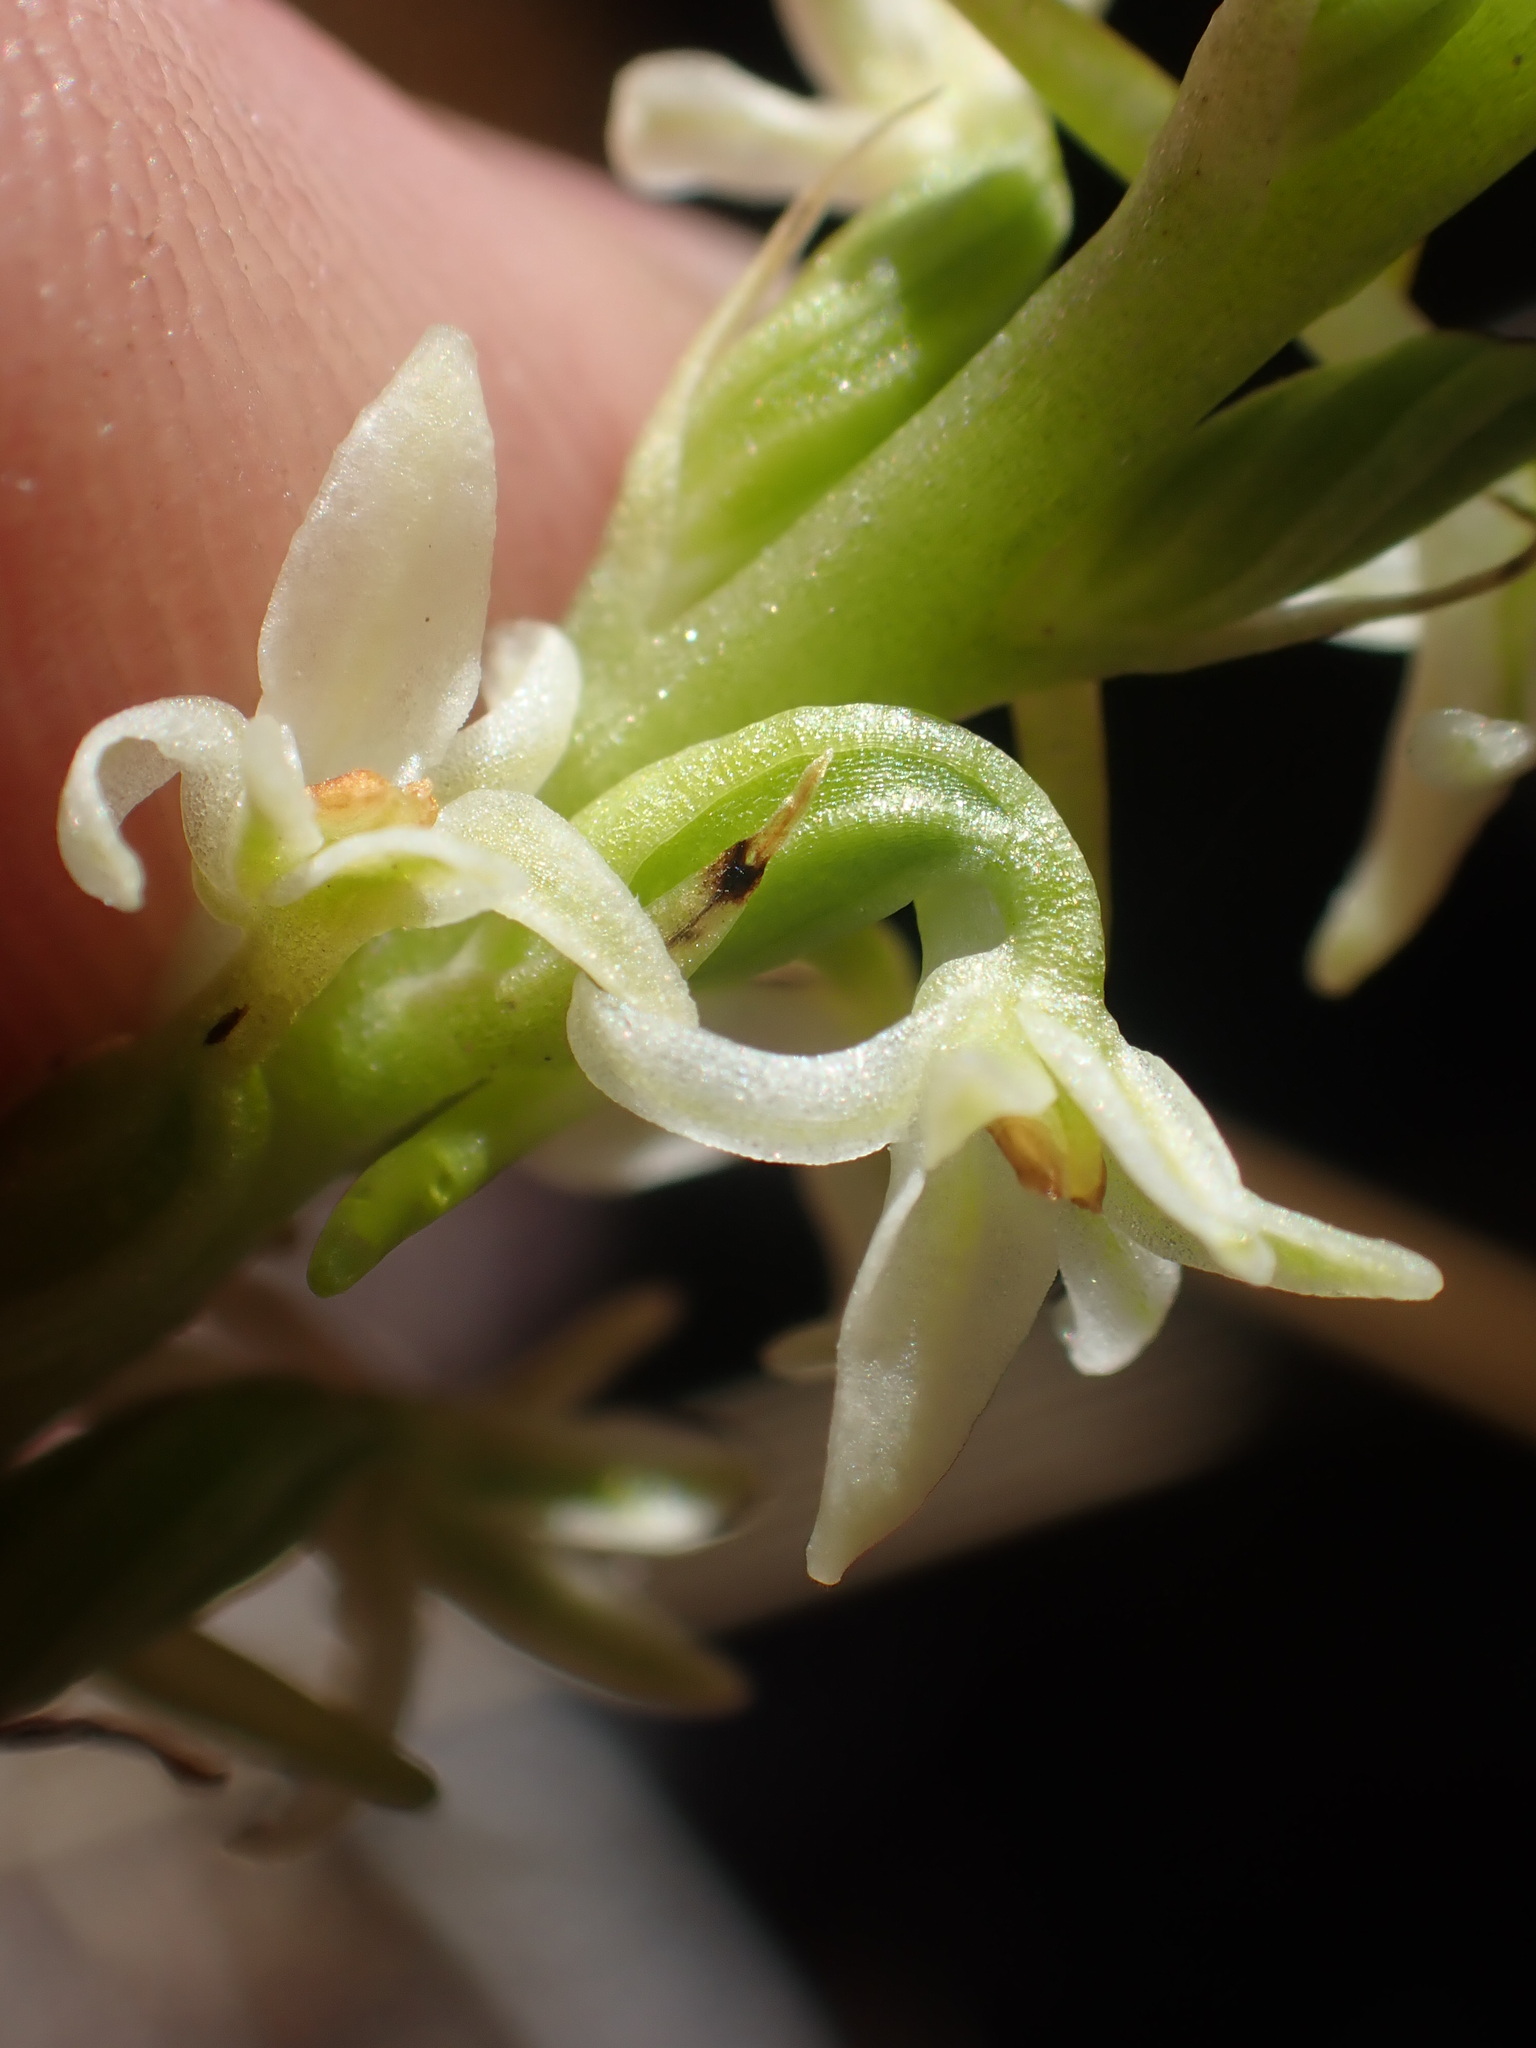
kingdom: Plantae
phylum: Tracheophyta
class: Liliopsida
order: Asparagales
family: Orchidaceae
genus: Platanthera
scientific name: Platanthera transversa
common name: Royal rein orchid
